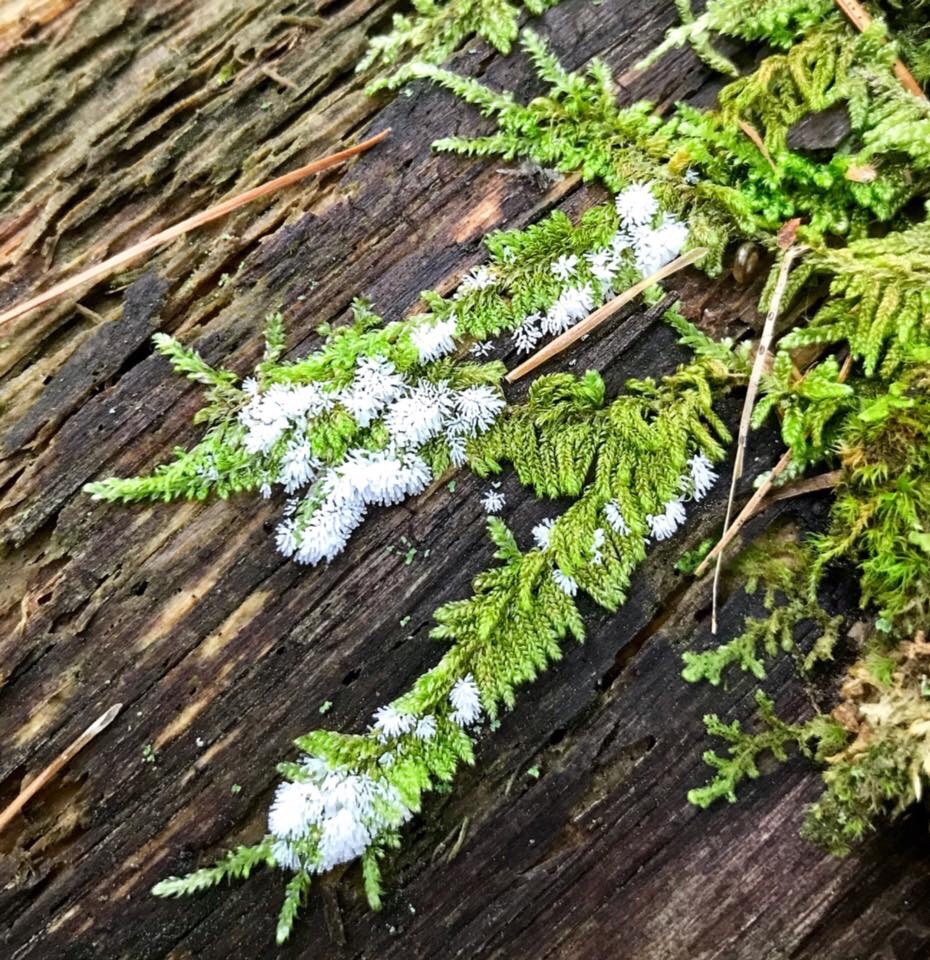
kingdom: Protozoa
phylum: Mycetozoa
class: Protosteliomycetes
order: Ceratiomyxales
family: Ceratiomyxaceae
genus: Ceratiomyxa
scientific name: Ceratiomyxa fruticulosa
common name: Honeycomb coral slime mold
